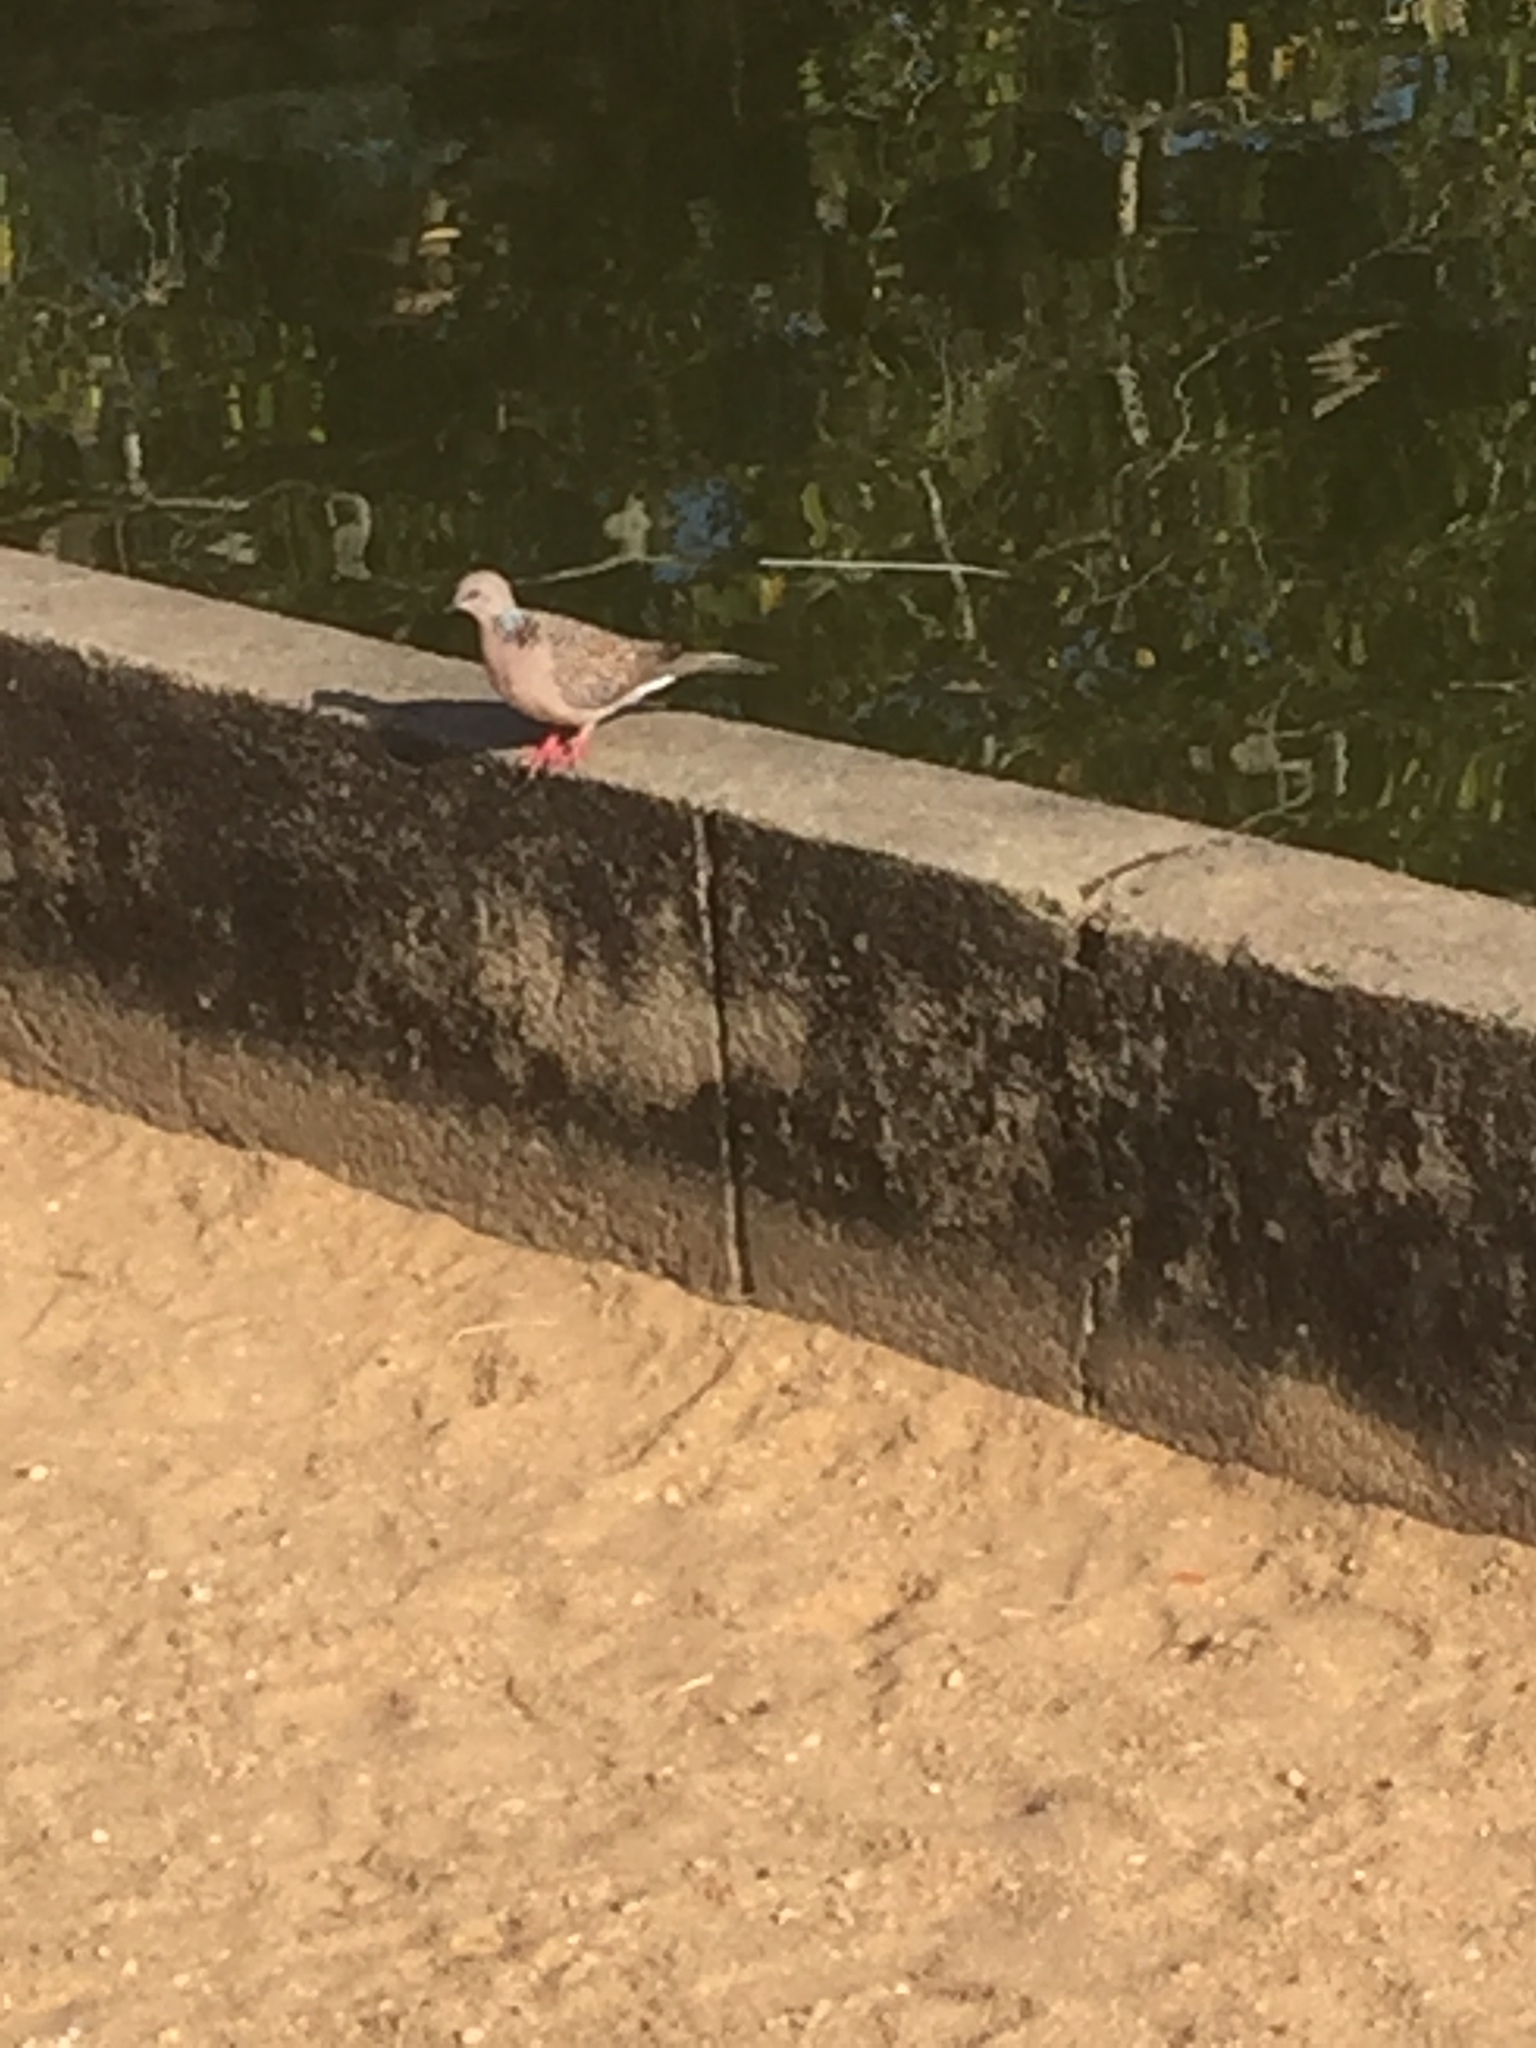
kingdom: Animalia
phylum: Chordata
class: Aves
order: Columbiformes
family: Columbidae
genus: Spilopelia
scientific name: Spilopelia chinensis
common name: Spotted dove
